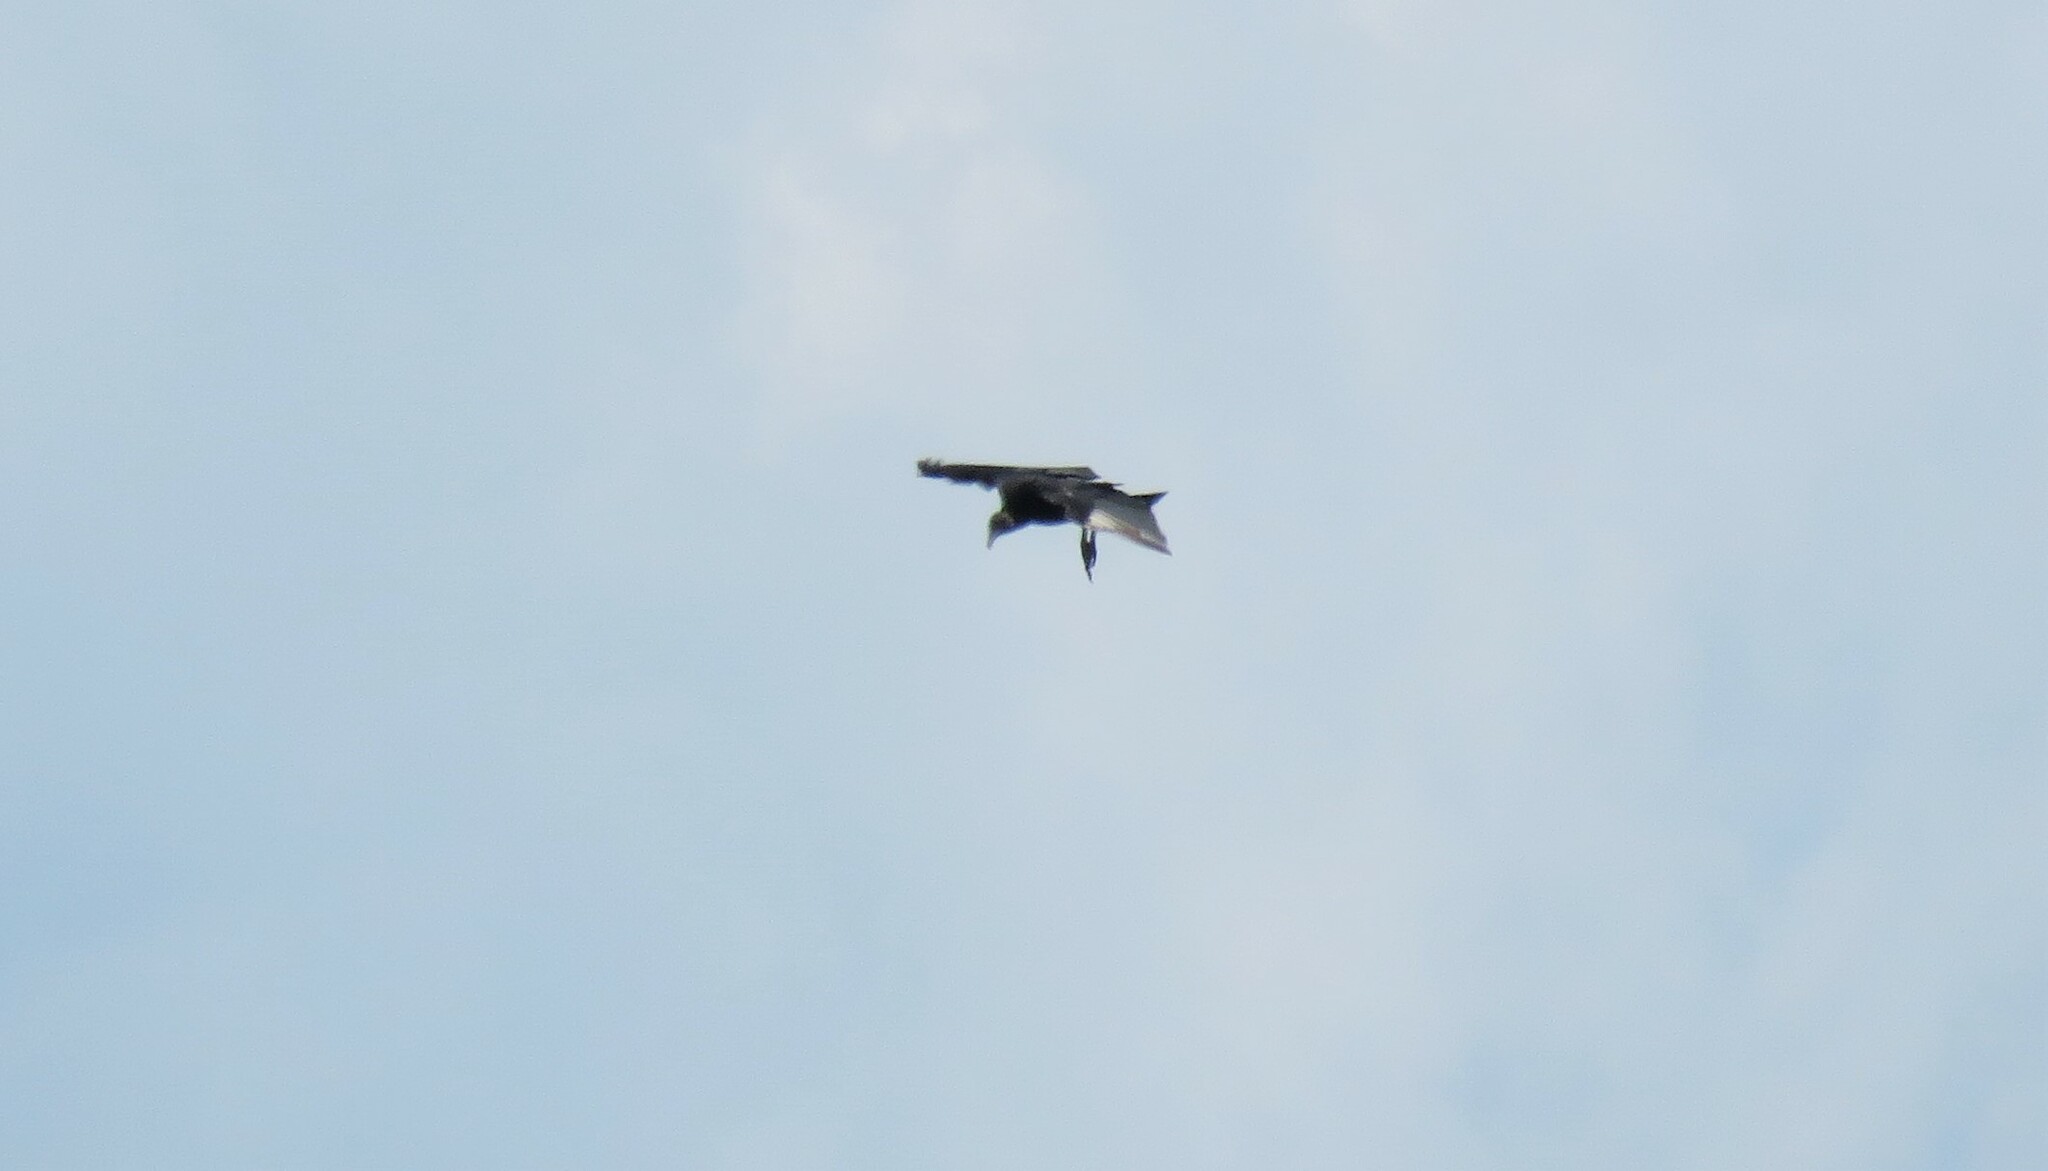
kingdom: Animalia
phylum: Chordata
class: Aves
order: Accipitriformes
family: Cathartidae
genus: Coragyps
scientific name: Coragyps atratus
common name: Black vulture
